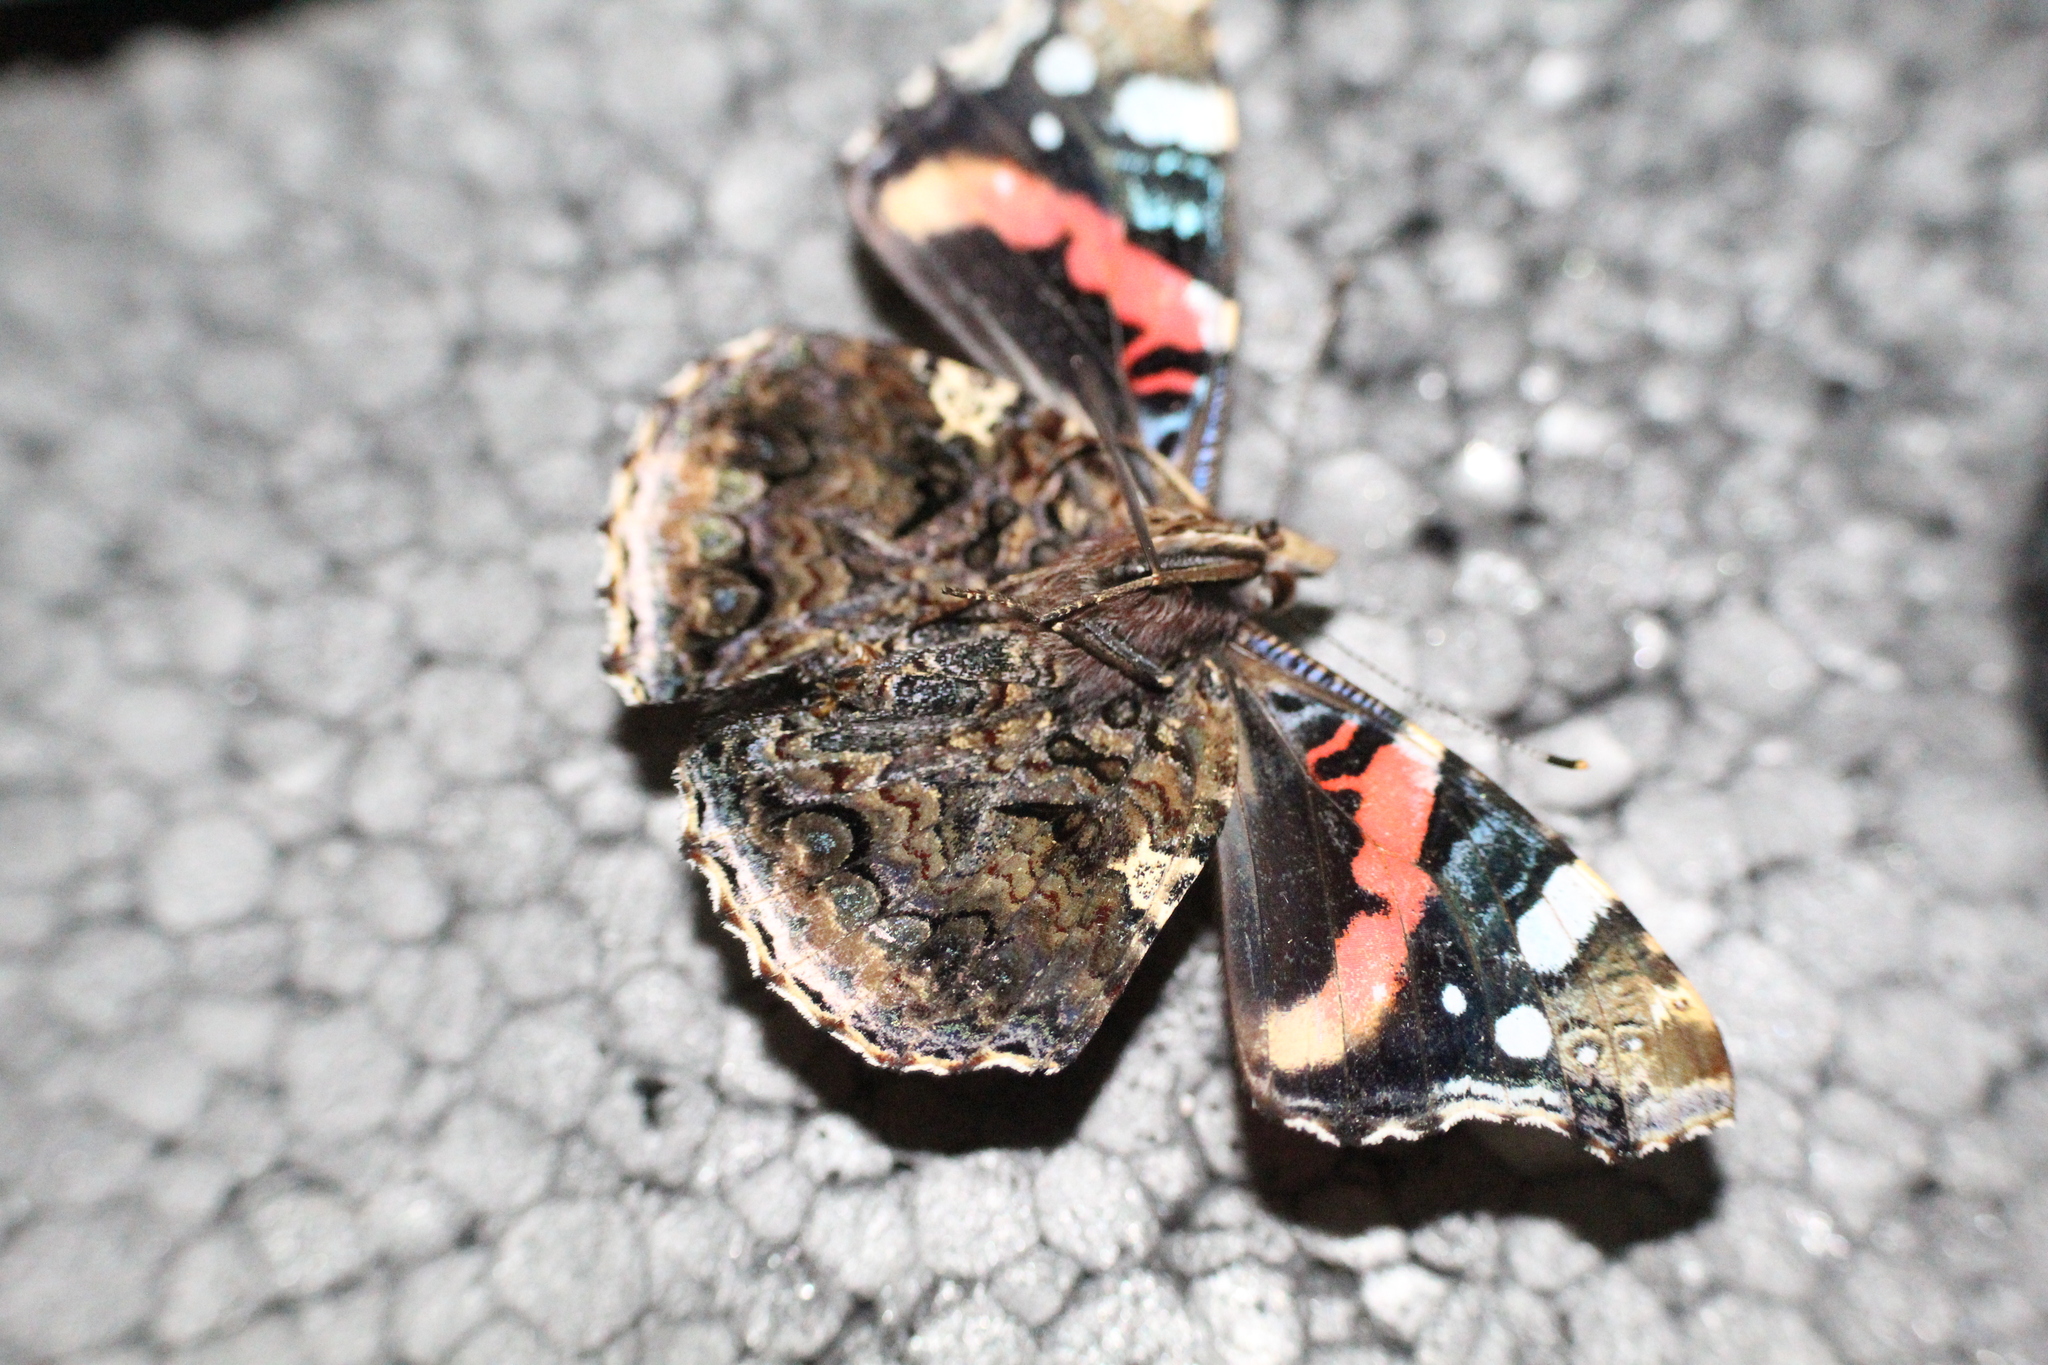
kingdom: Animalia
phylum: Arthropoda
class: Insecta
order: Lepidoptera
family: Nymphalidae
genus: Vanessa
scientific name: Vanessa atalanta
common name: Red admiral
